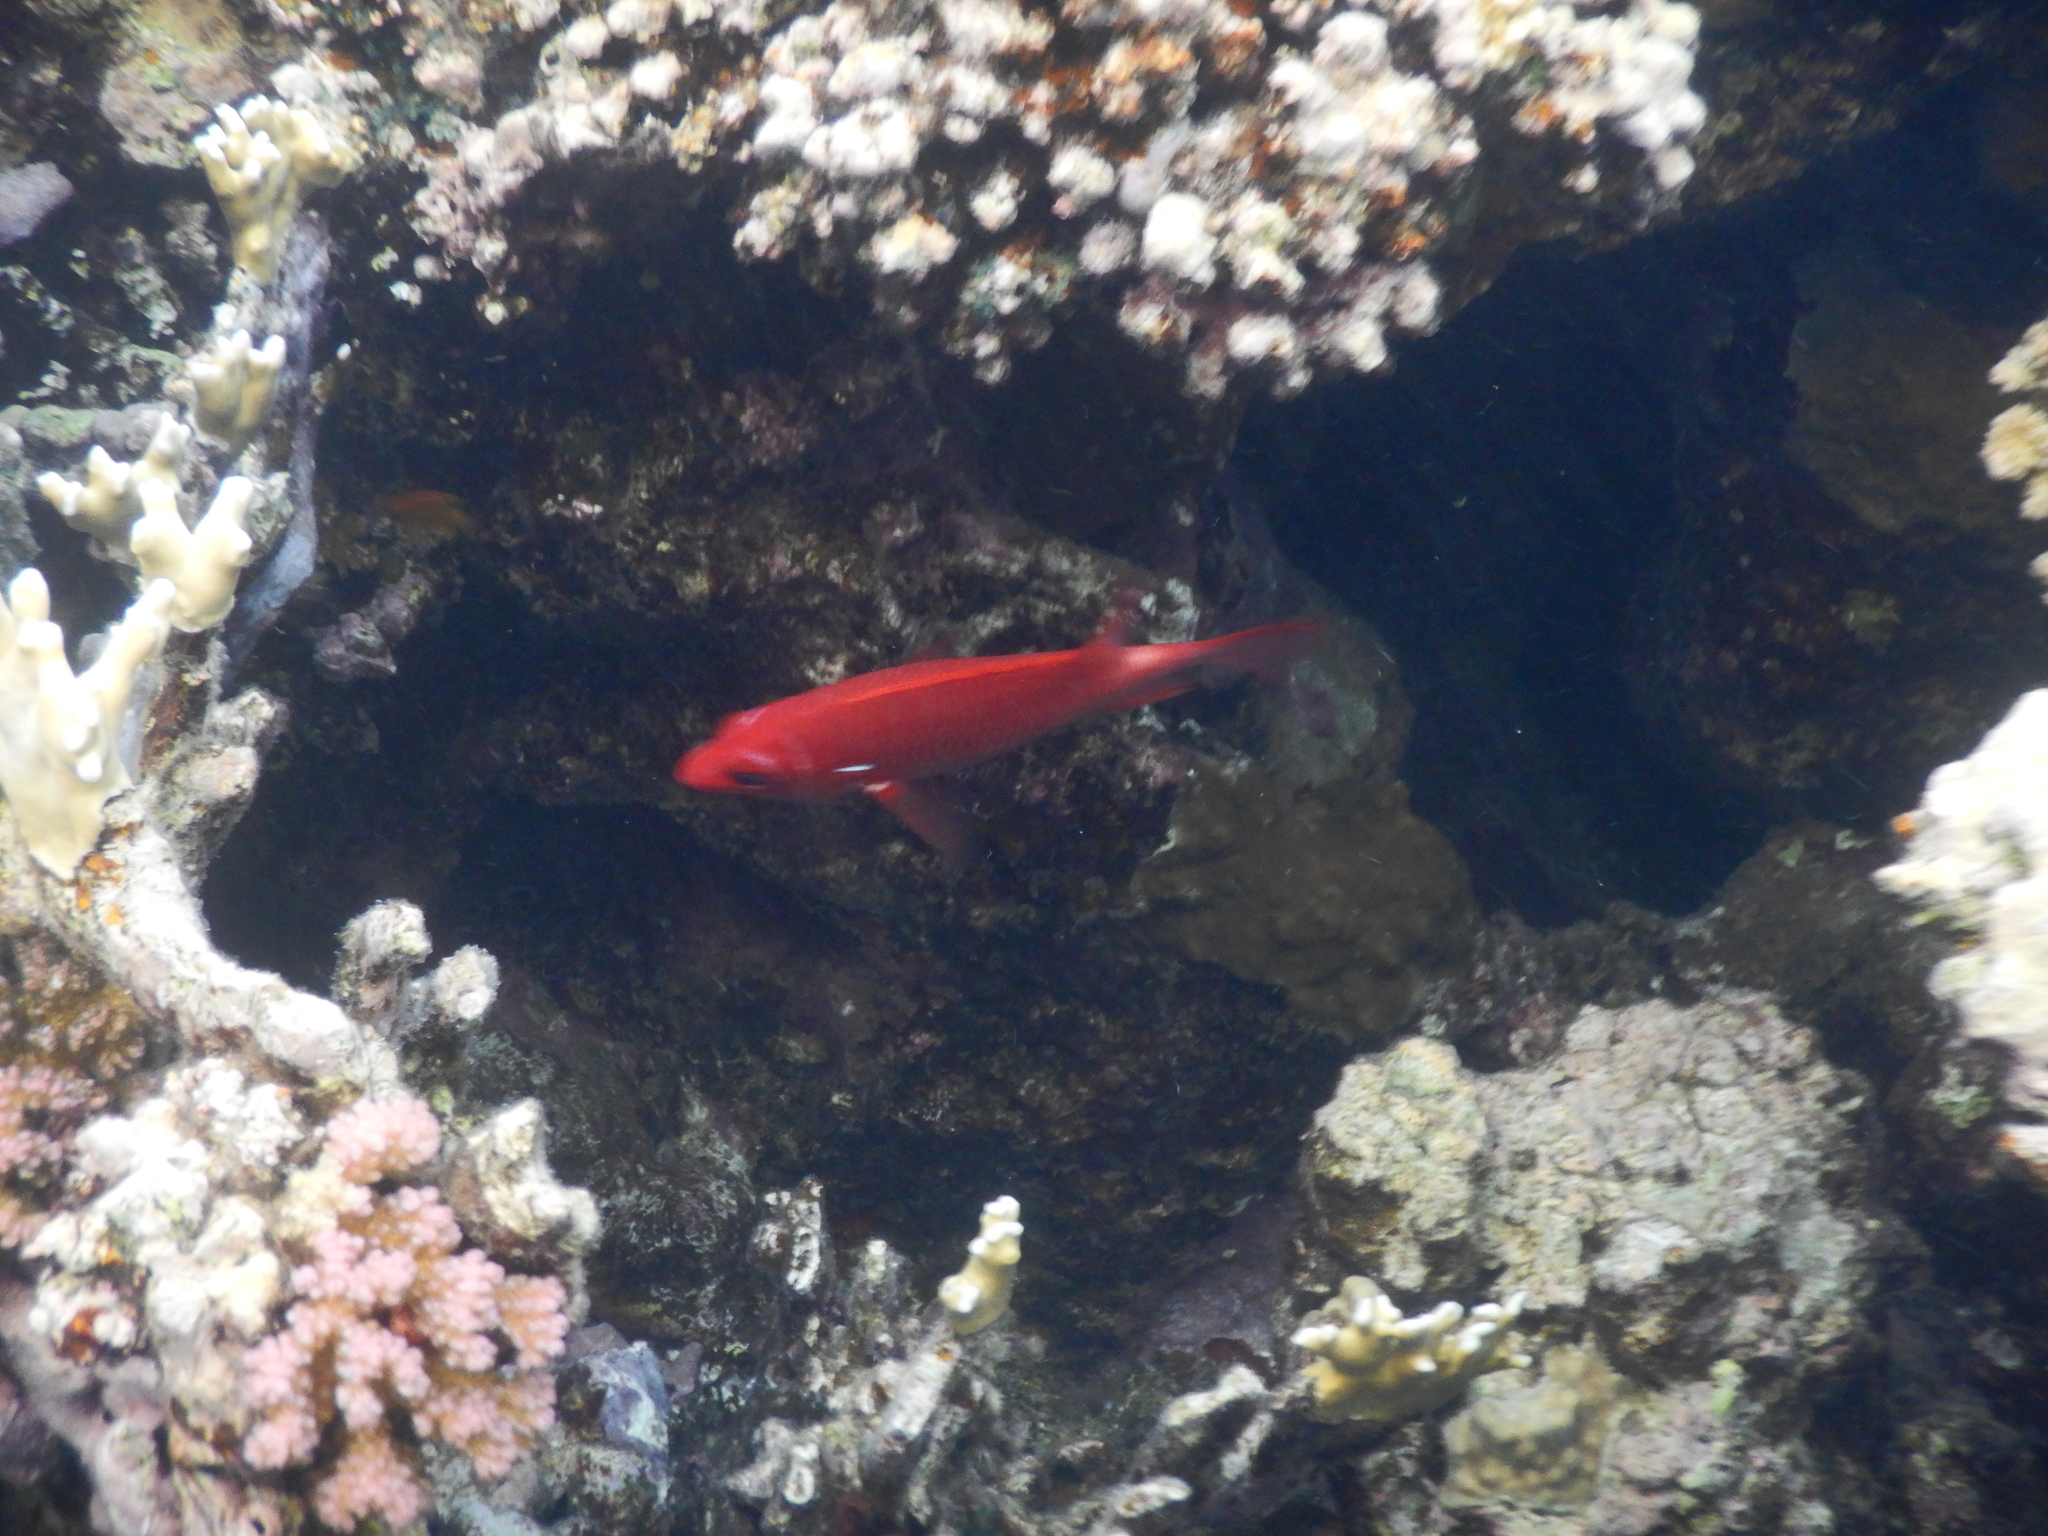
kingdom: Animalia
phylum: Chordata
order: Beryciformes
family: Holocentridae
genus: Sargocentron
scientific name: Sargocentron caudimaculatum
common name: Fanfin soldier
